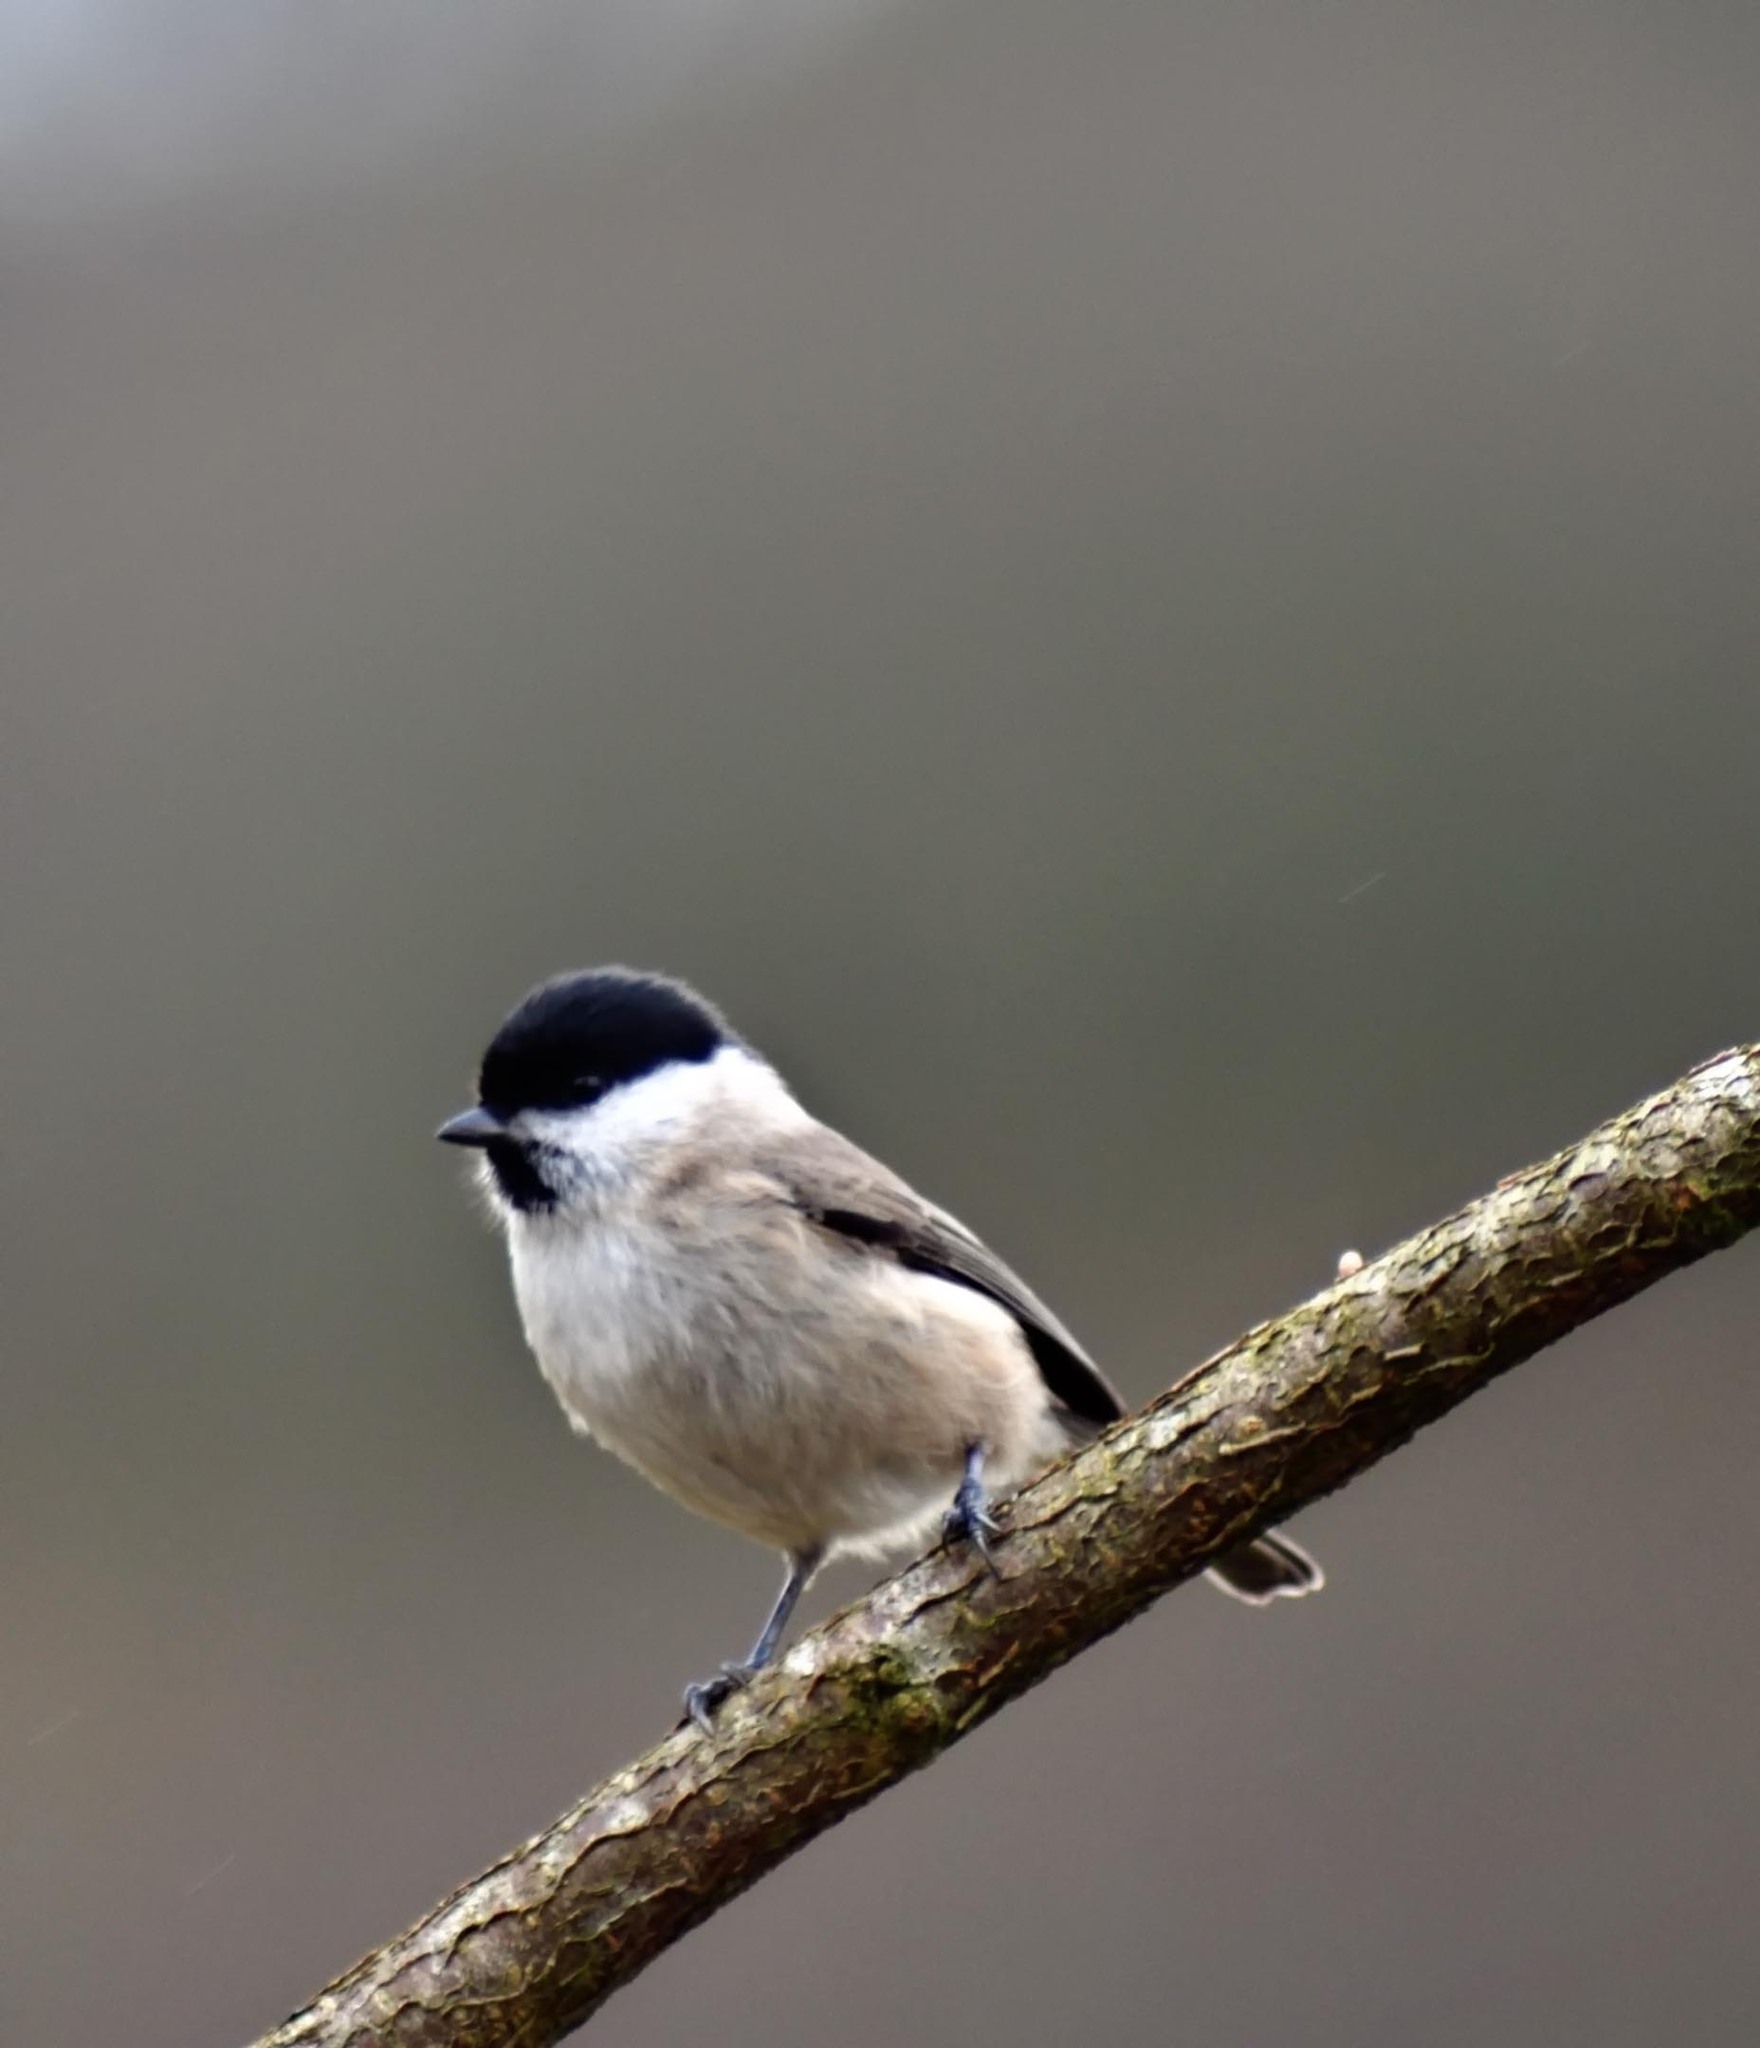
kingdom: Animalia
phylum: Chordata
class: Aves
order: Passeriformes
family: Paridae
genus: Poecile
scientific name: Poecile palustris
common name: Marsh tit
